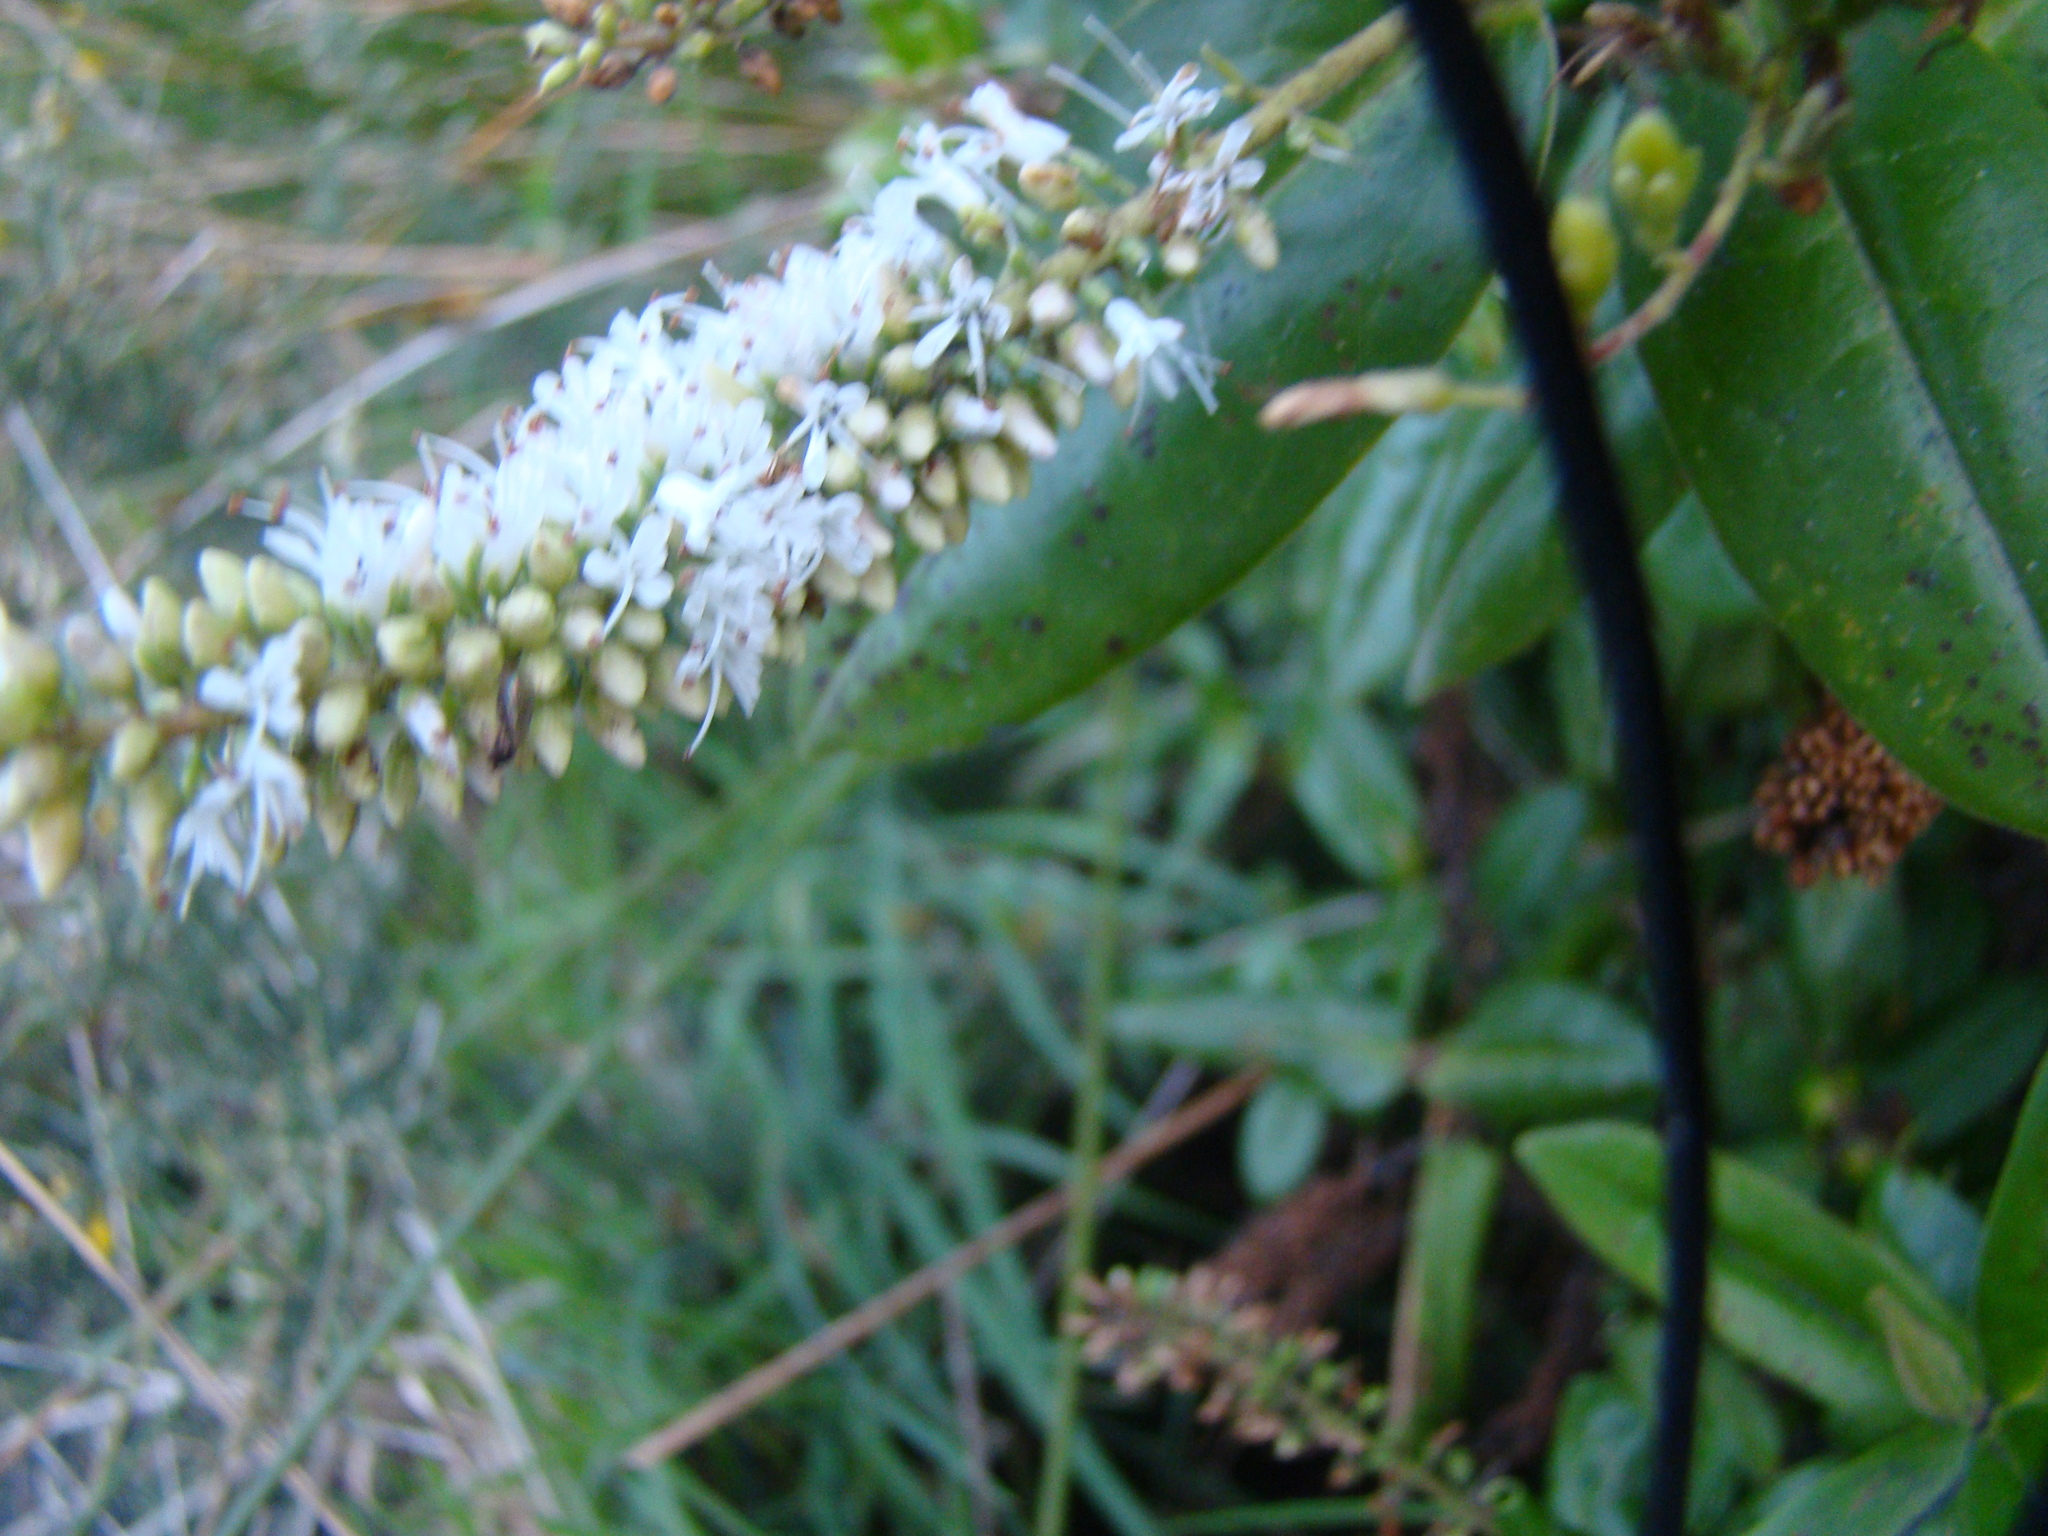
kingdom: Plantae
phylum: Tracheophyta
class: Magnoliopsida
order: Lamiales
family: Plantaginaceae
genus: Veronica
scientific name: Veronica stricta
